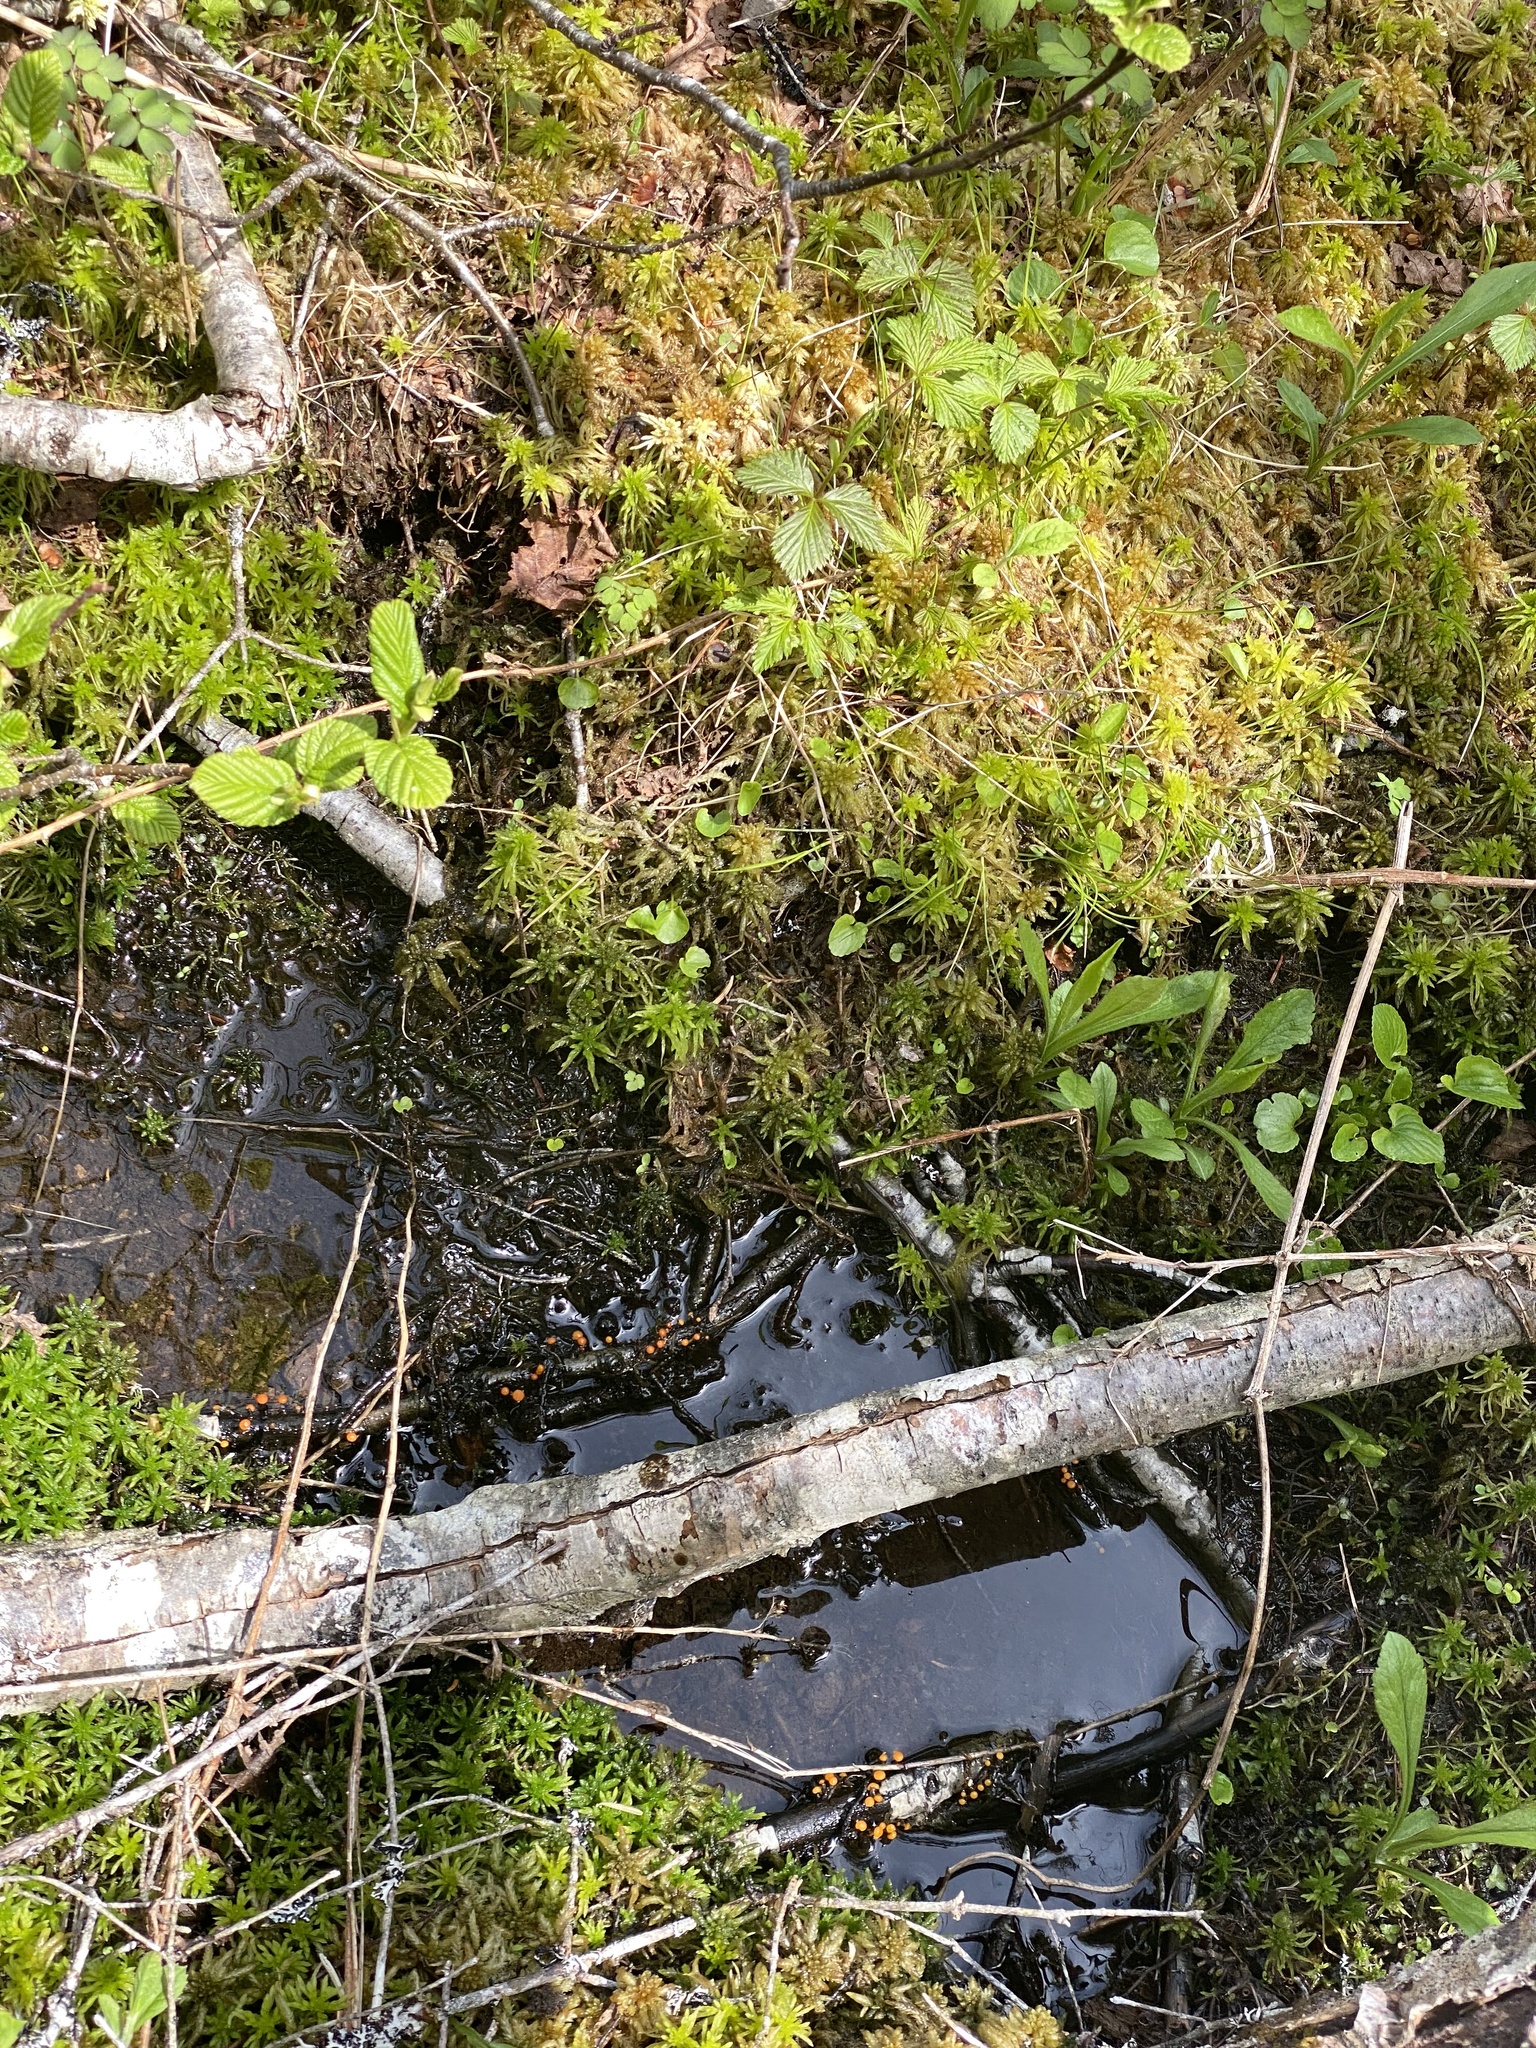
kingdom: Fungi
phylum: Ascomycota
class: Leotiomycetes
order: Helotiales
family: Vibrisseaceae
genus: Vibrissea
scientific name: Vibrissea truncorum
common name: Stream beacon
